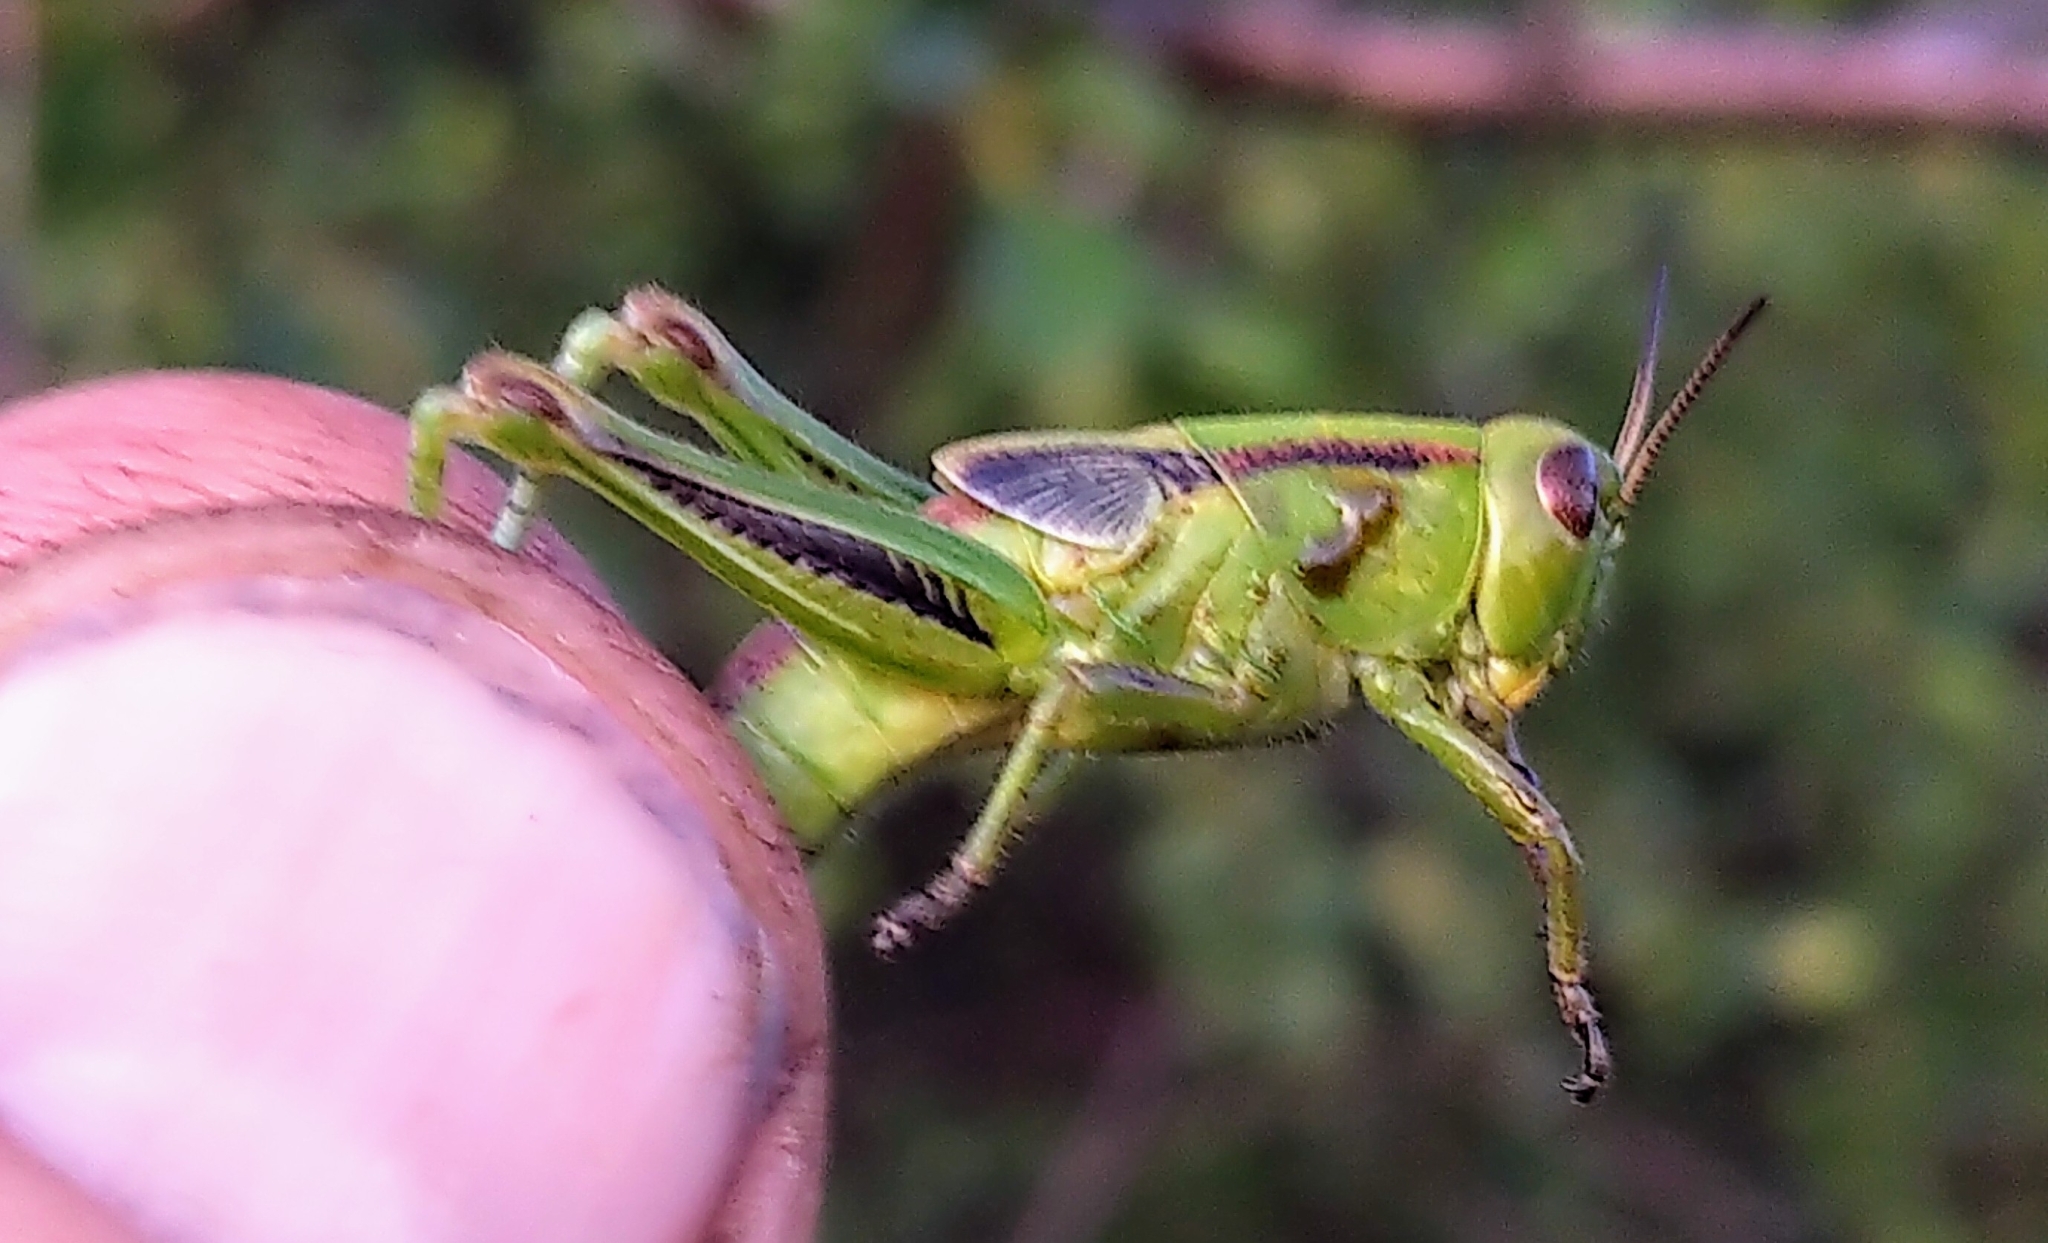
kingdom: Animalia
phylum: Arthropoda
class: Insecta
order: Orthoptera
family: Acrididae
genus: Melanoplus
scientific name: Melanoplus bivittatus
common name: Two-striped grasshopper
